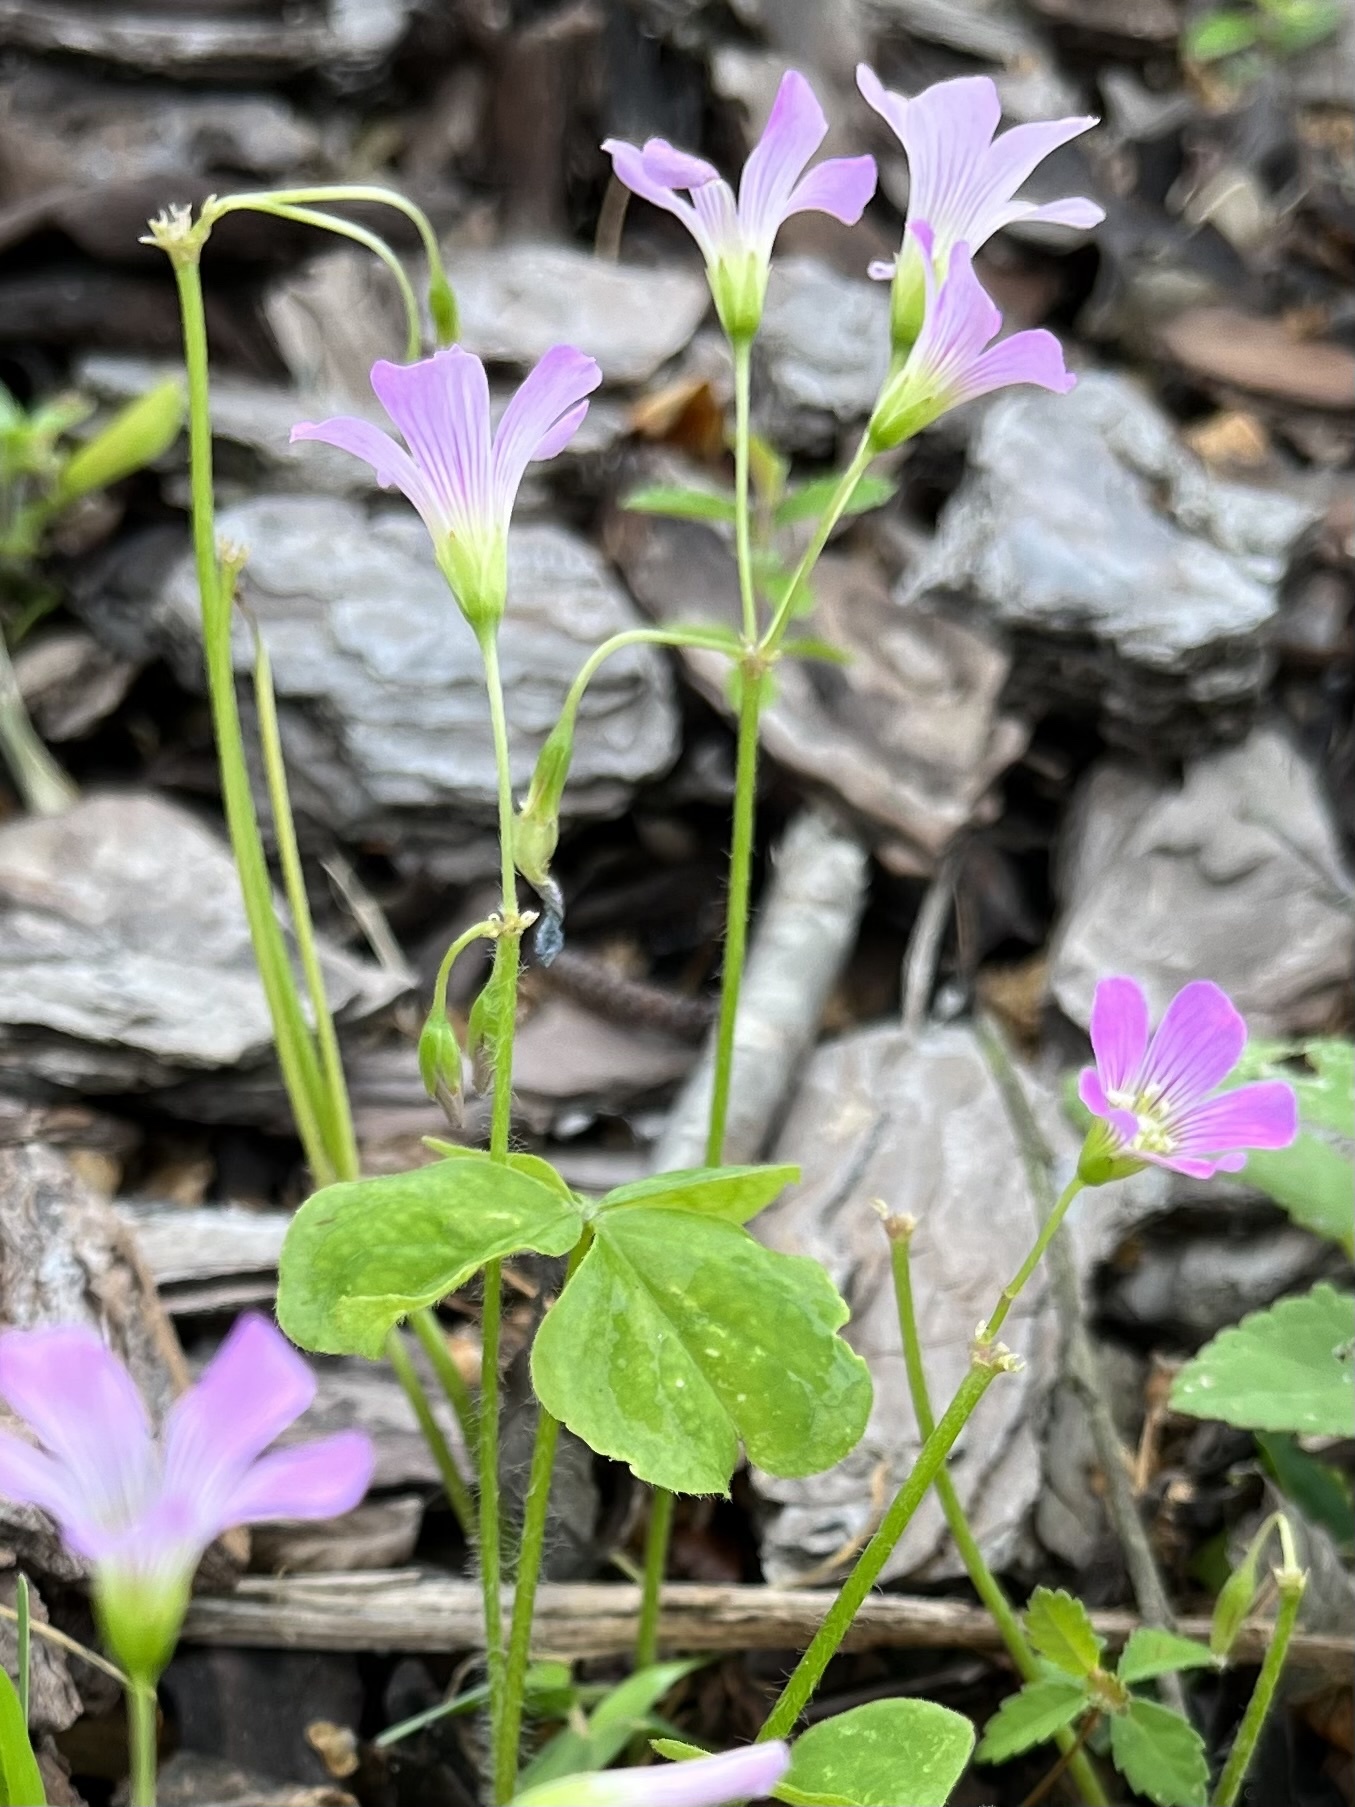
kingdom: Plantae
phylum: Tracheophyta
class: Magnoliopsida
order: Oxalidales
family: Oxalidaceae
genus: Oxalis
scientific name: Oxalis debilis
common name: Large-flowered pink-sorrel
